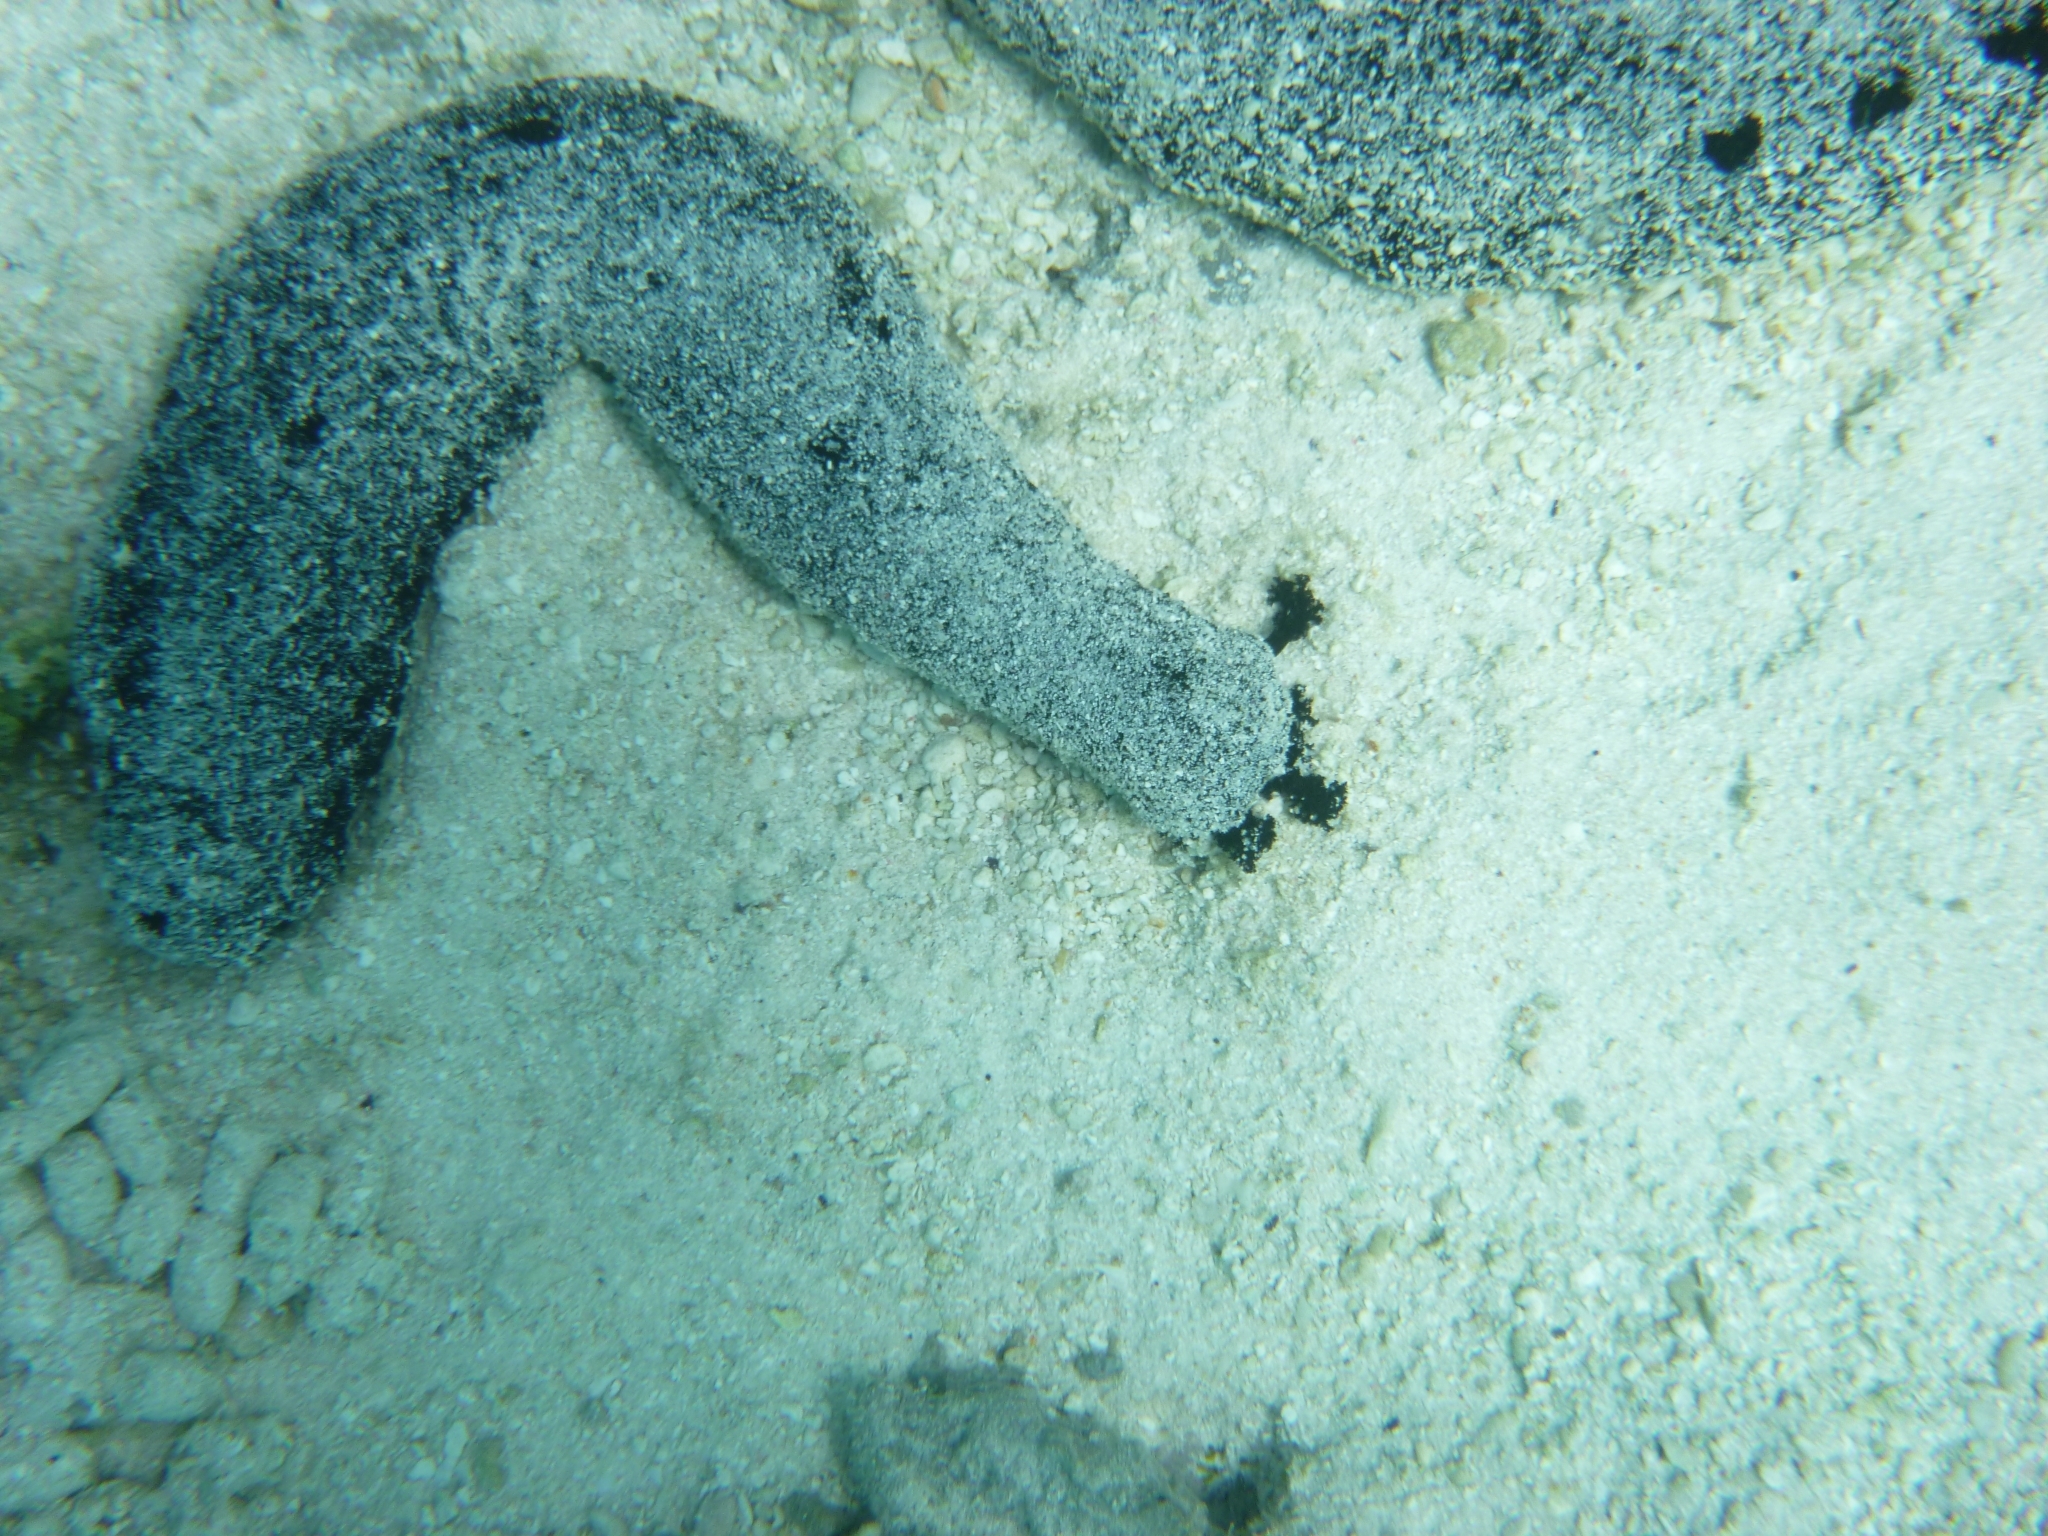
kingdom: Animalia
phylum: Echinodermata
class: Holothuroidea
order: Holothuriida
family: Holothuriidae
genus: Holothuria
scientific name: Holothuria atra
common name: Lollyfish
